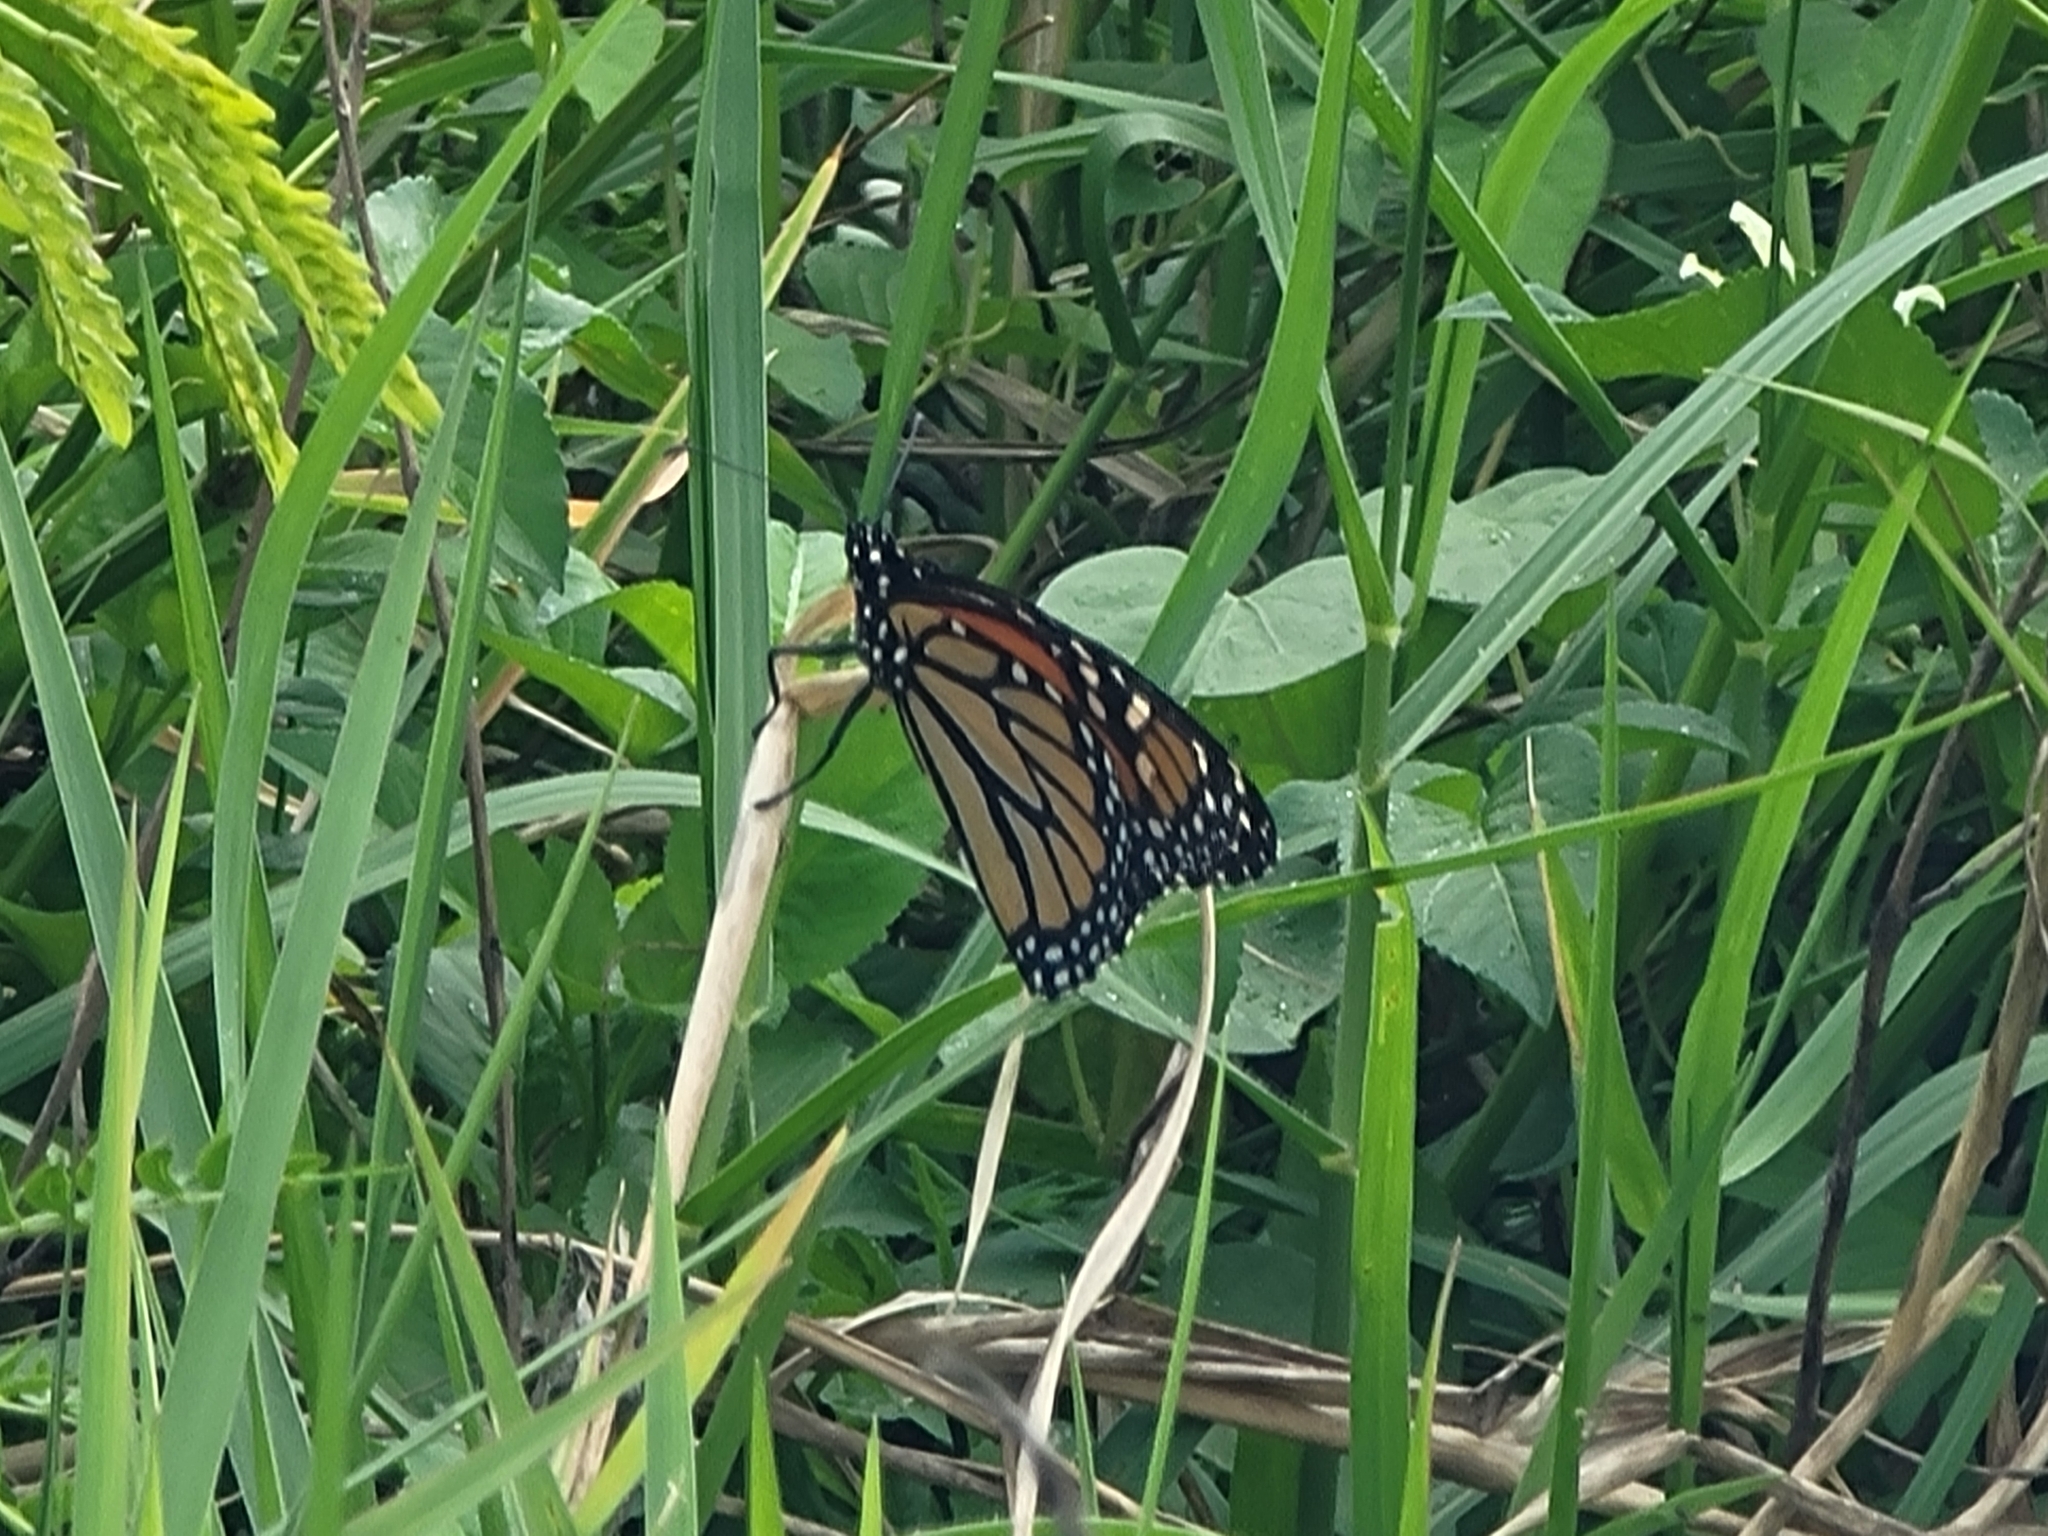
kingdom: Animalia
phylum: Arthropoda
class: Insecta
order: Lepidoptera
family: Nymphalidae
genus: Danaus
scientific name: Danaus plexippus
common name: Monarch
